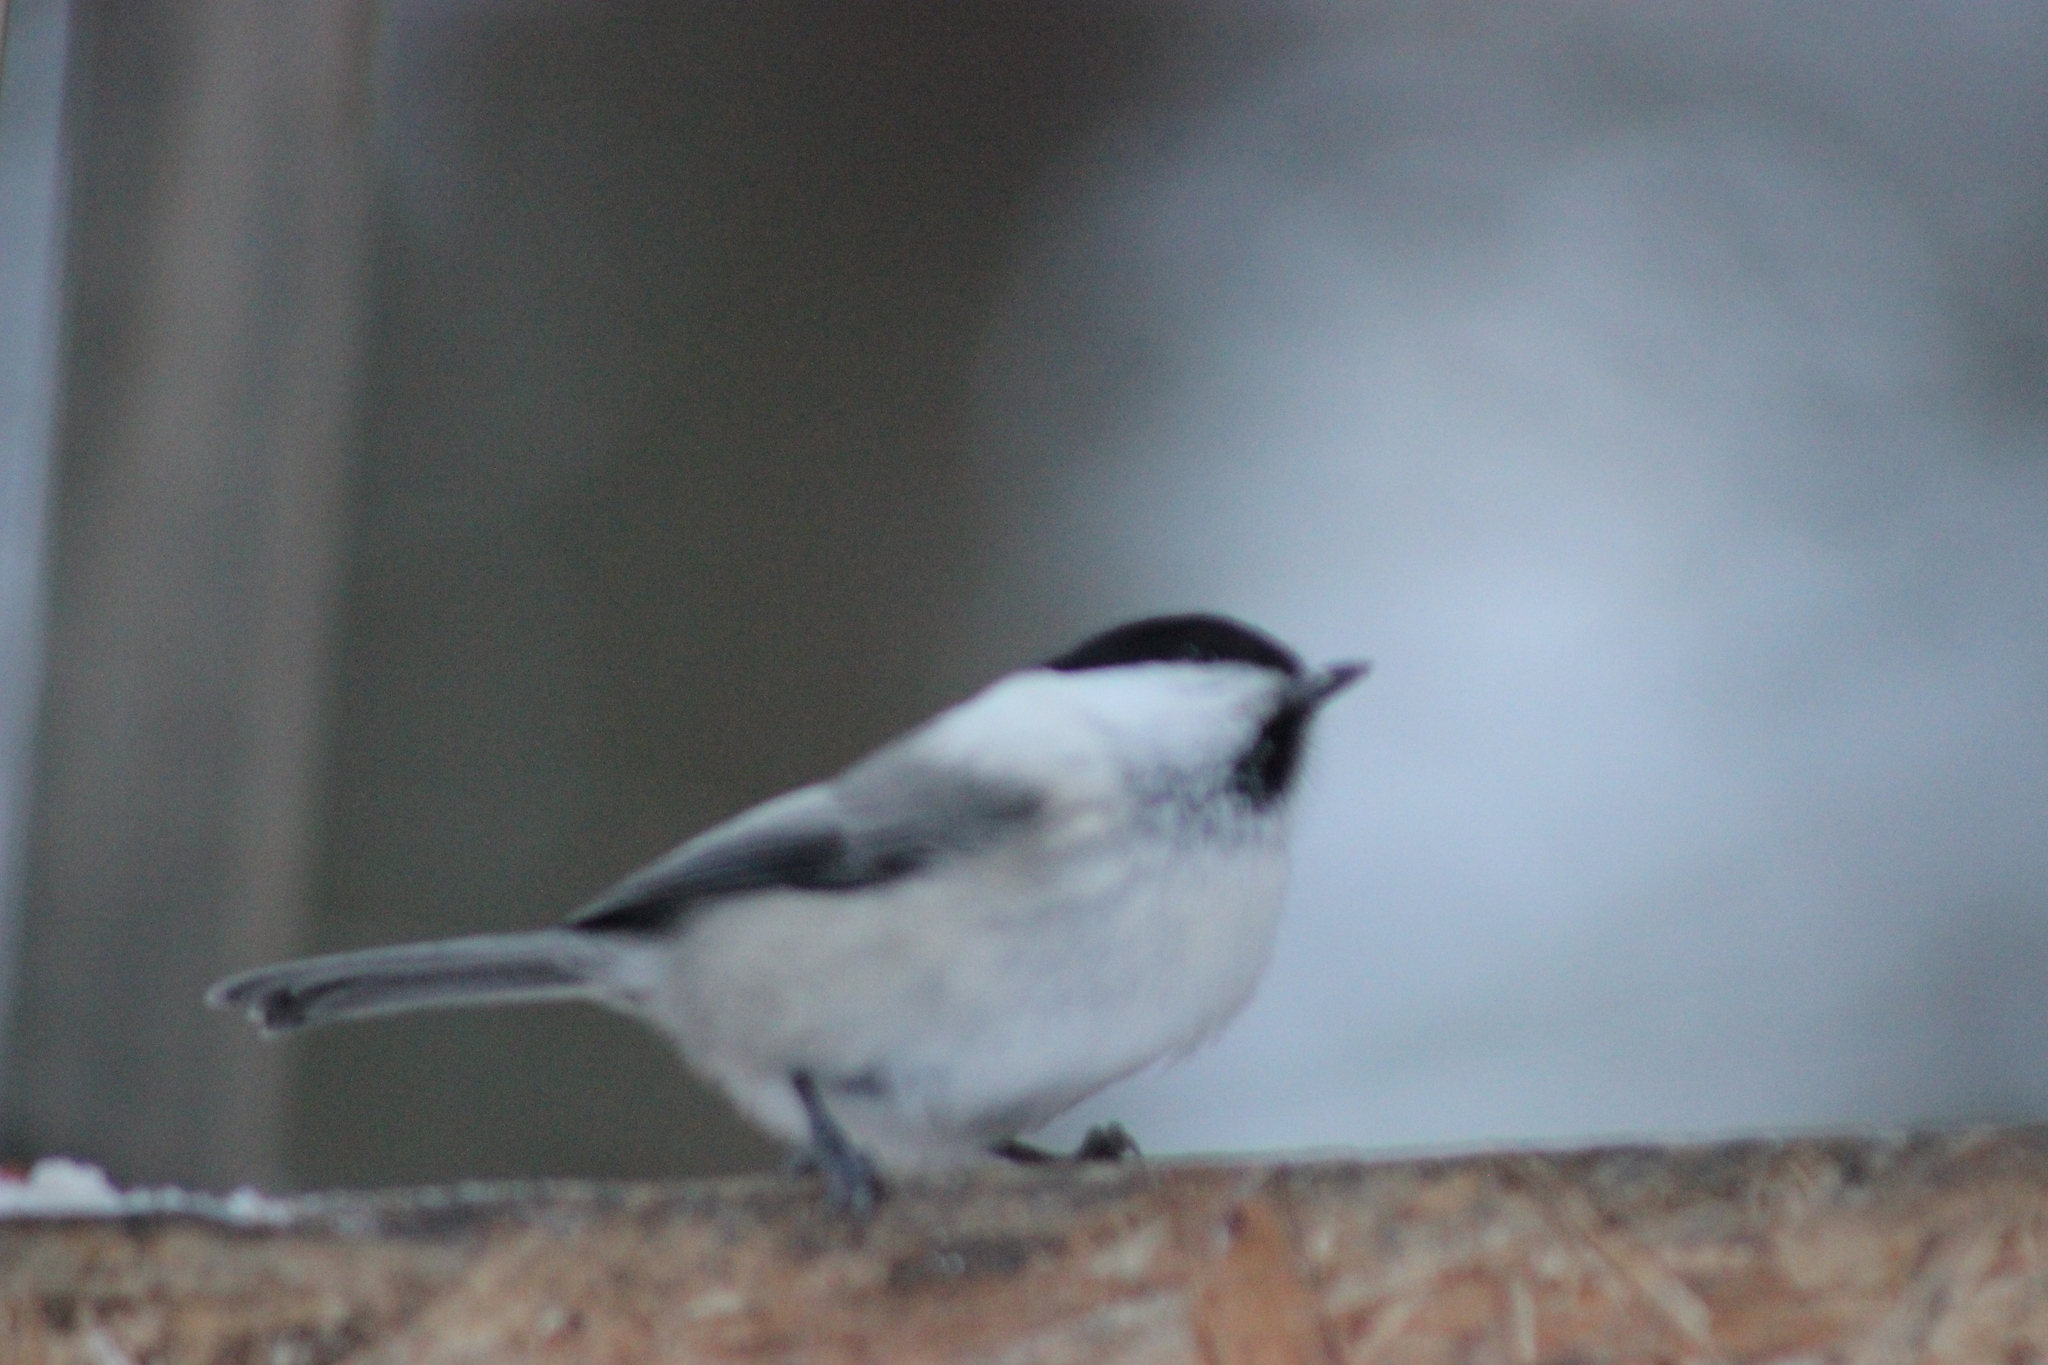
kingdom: Animalia
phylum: Chordata
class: Aves
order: Passeriformes
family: Paridae
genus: Poecile
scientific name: Poecile montanus
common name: Willow tit
